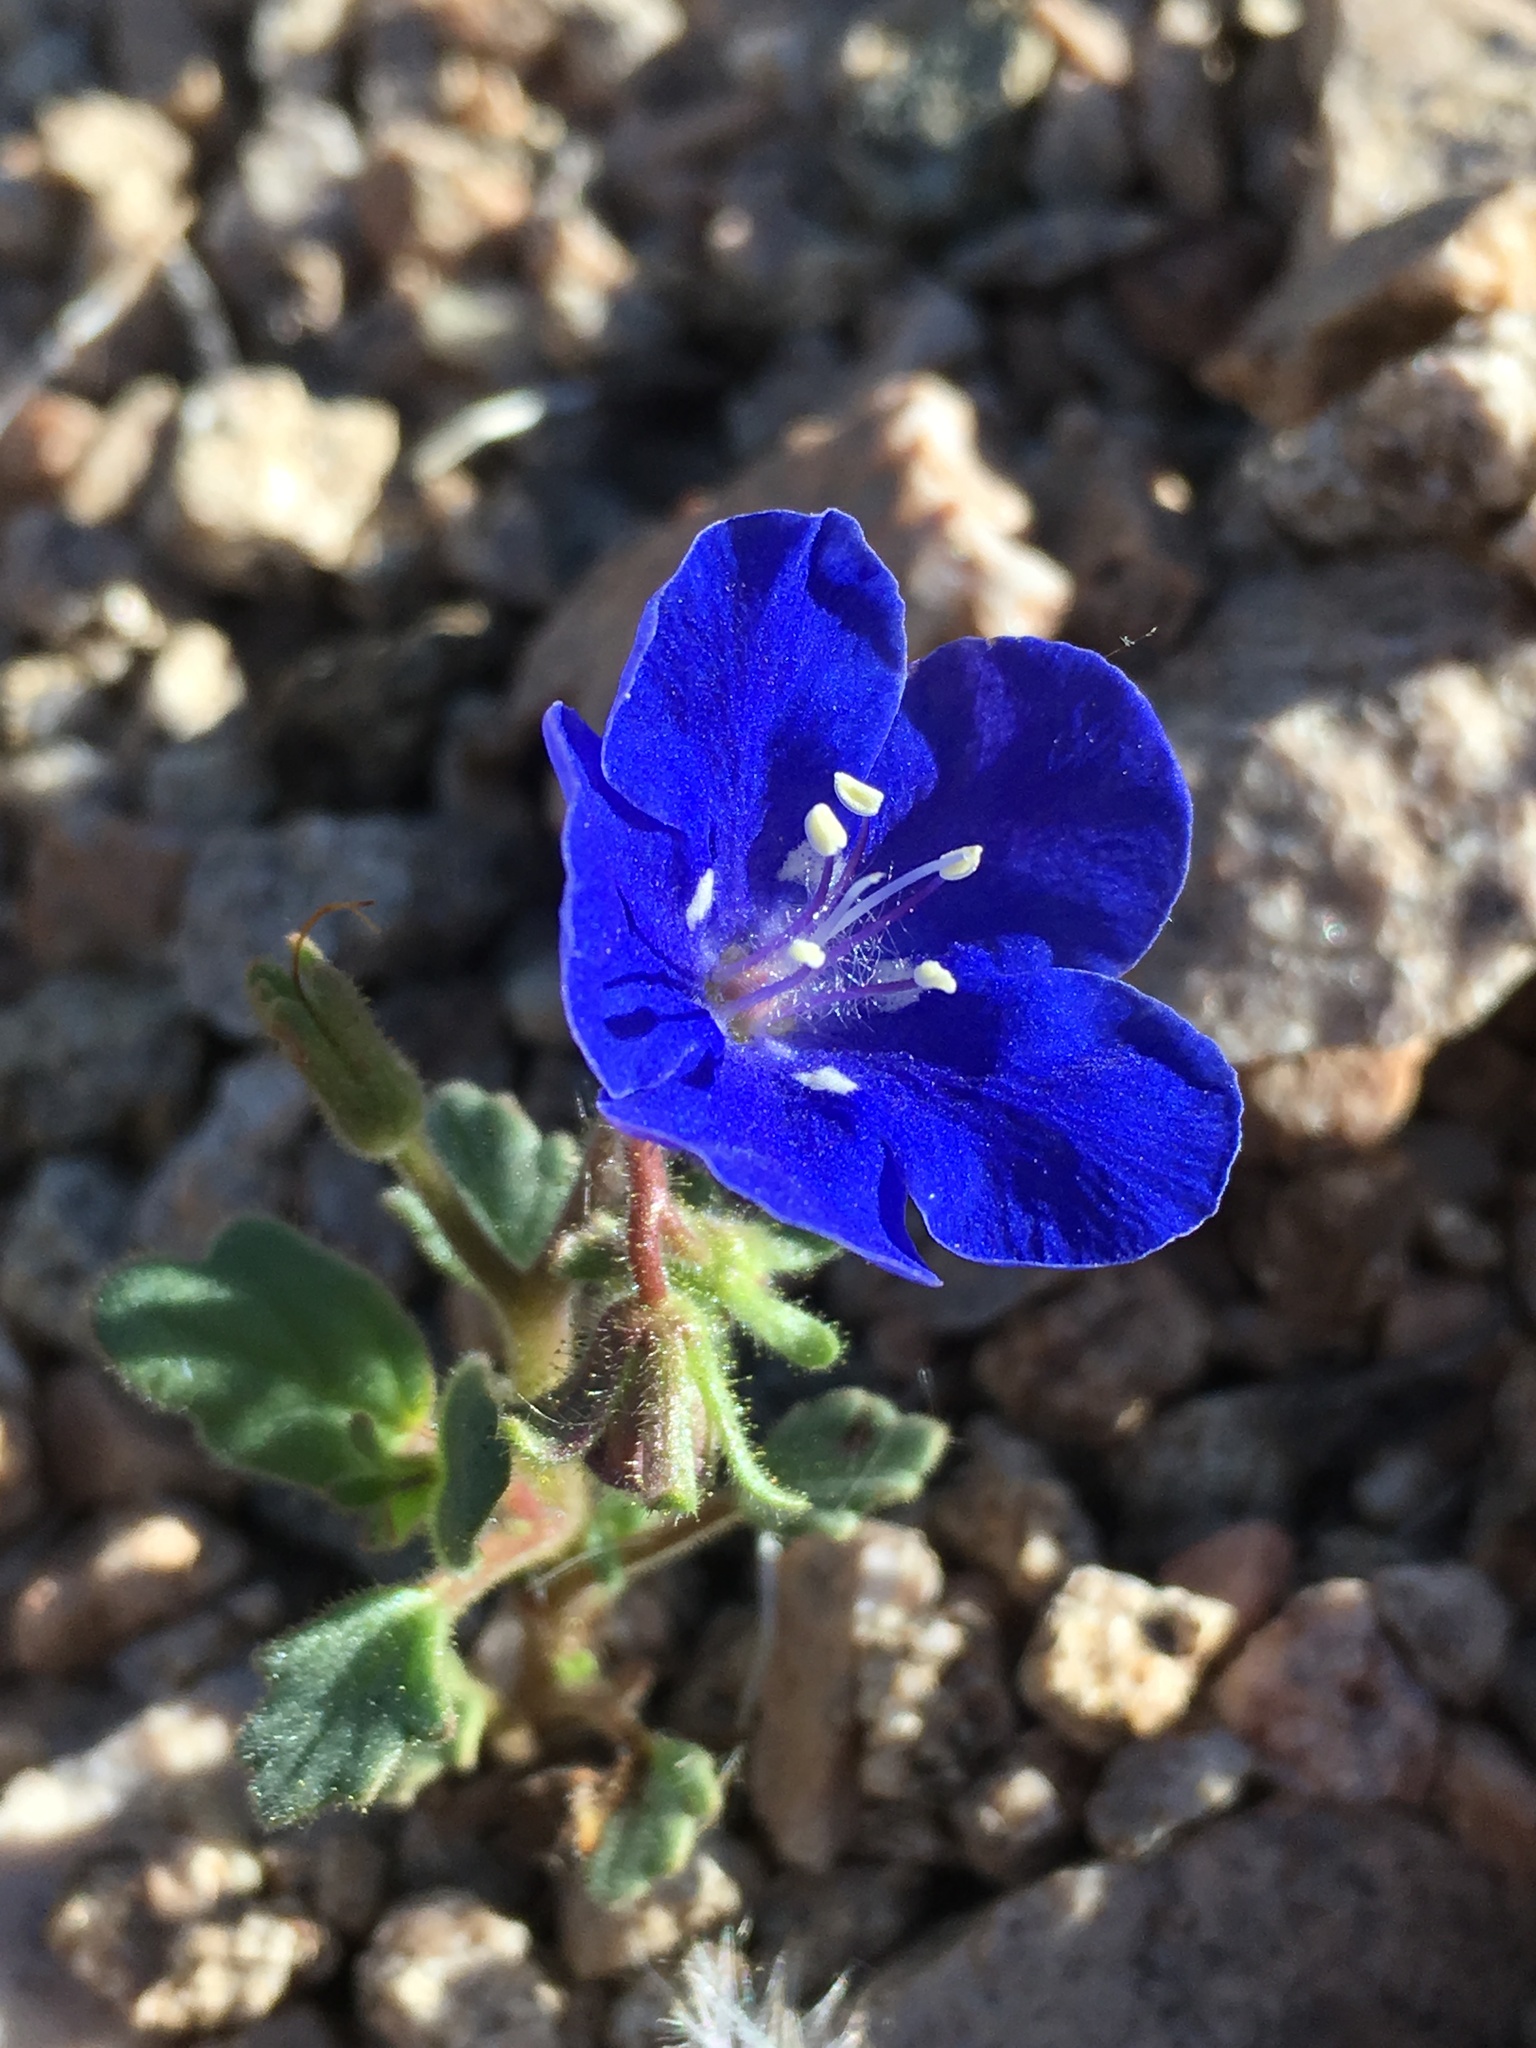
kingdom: Plantae
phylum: Tracheophyta
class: Magnoliopsida
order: Boraginales
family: Hydrophyllaceae
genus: Phacelia
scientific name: Phacelia nashiana
